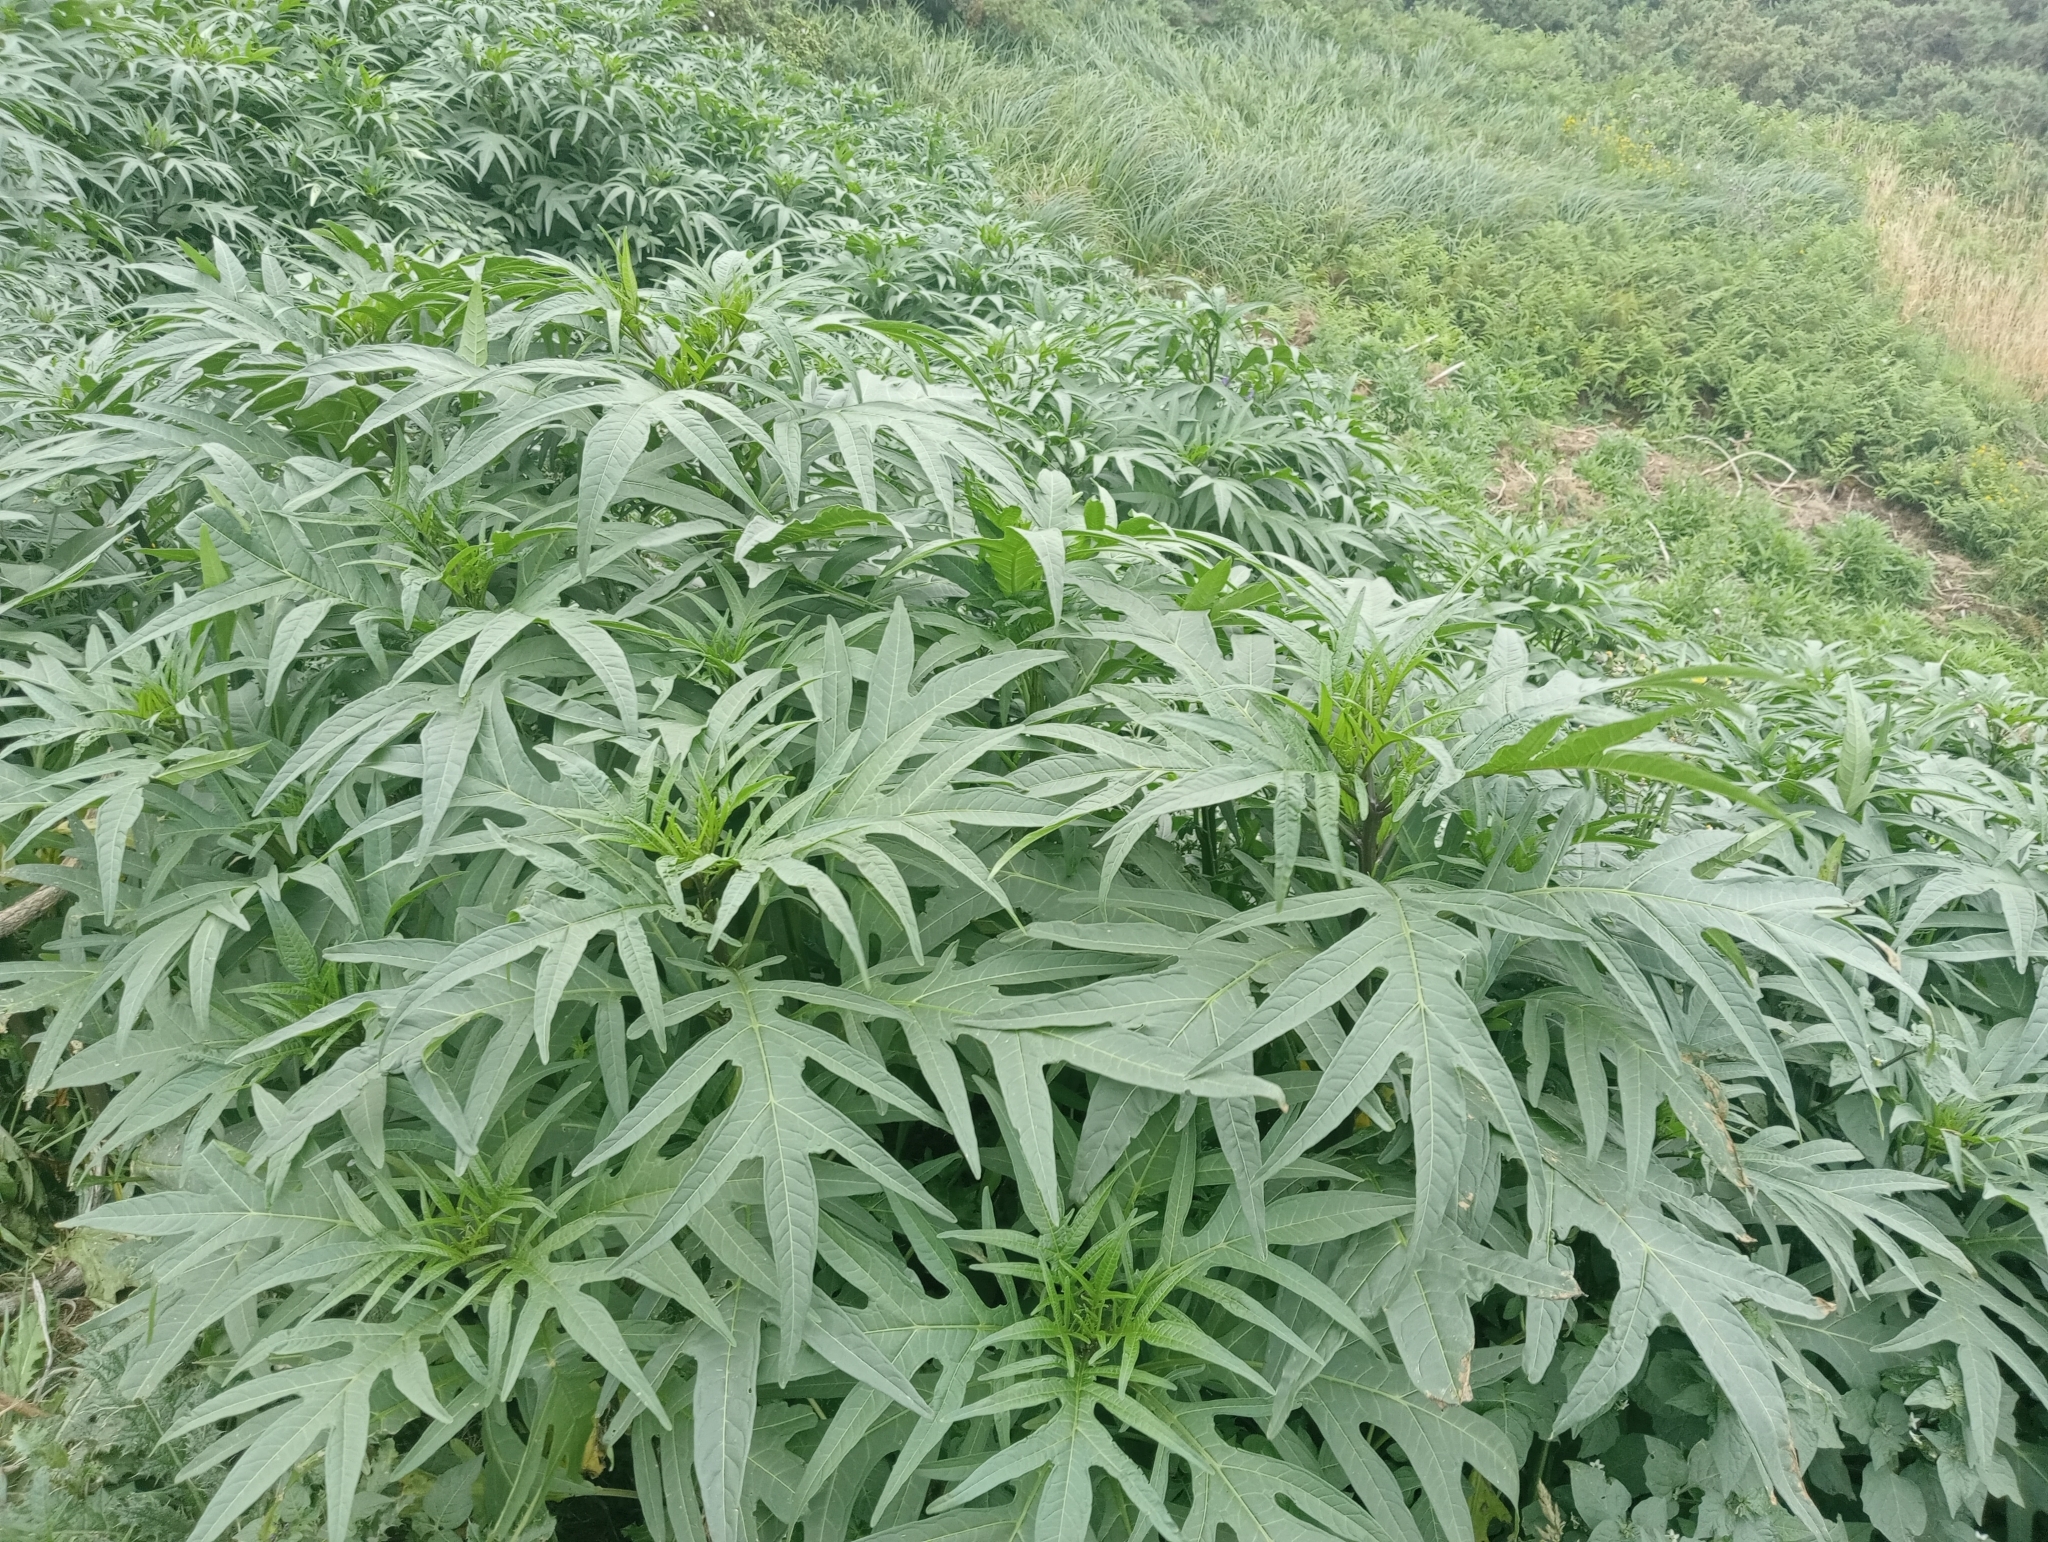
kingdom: Plantae
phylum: Tracheophyta
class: Magnoliopsida
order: Solanales
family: Solanaceae
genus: Solanum
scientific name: Solanum laciniatum
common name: Kangaroo-apple
